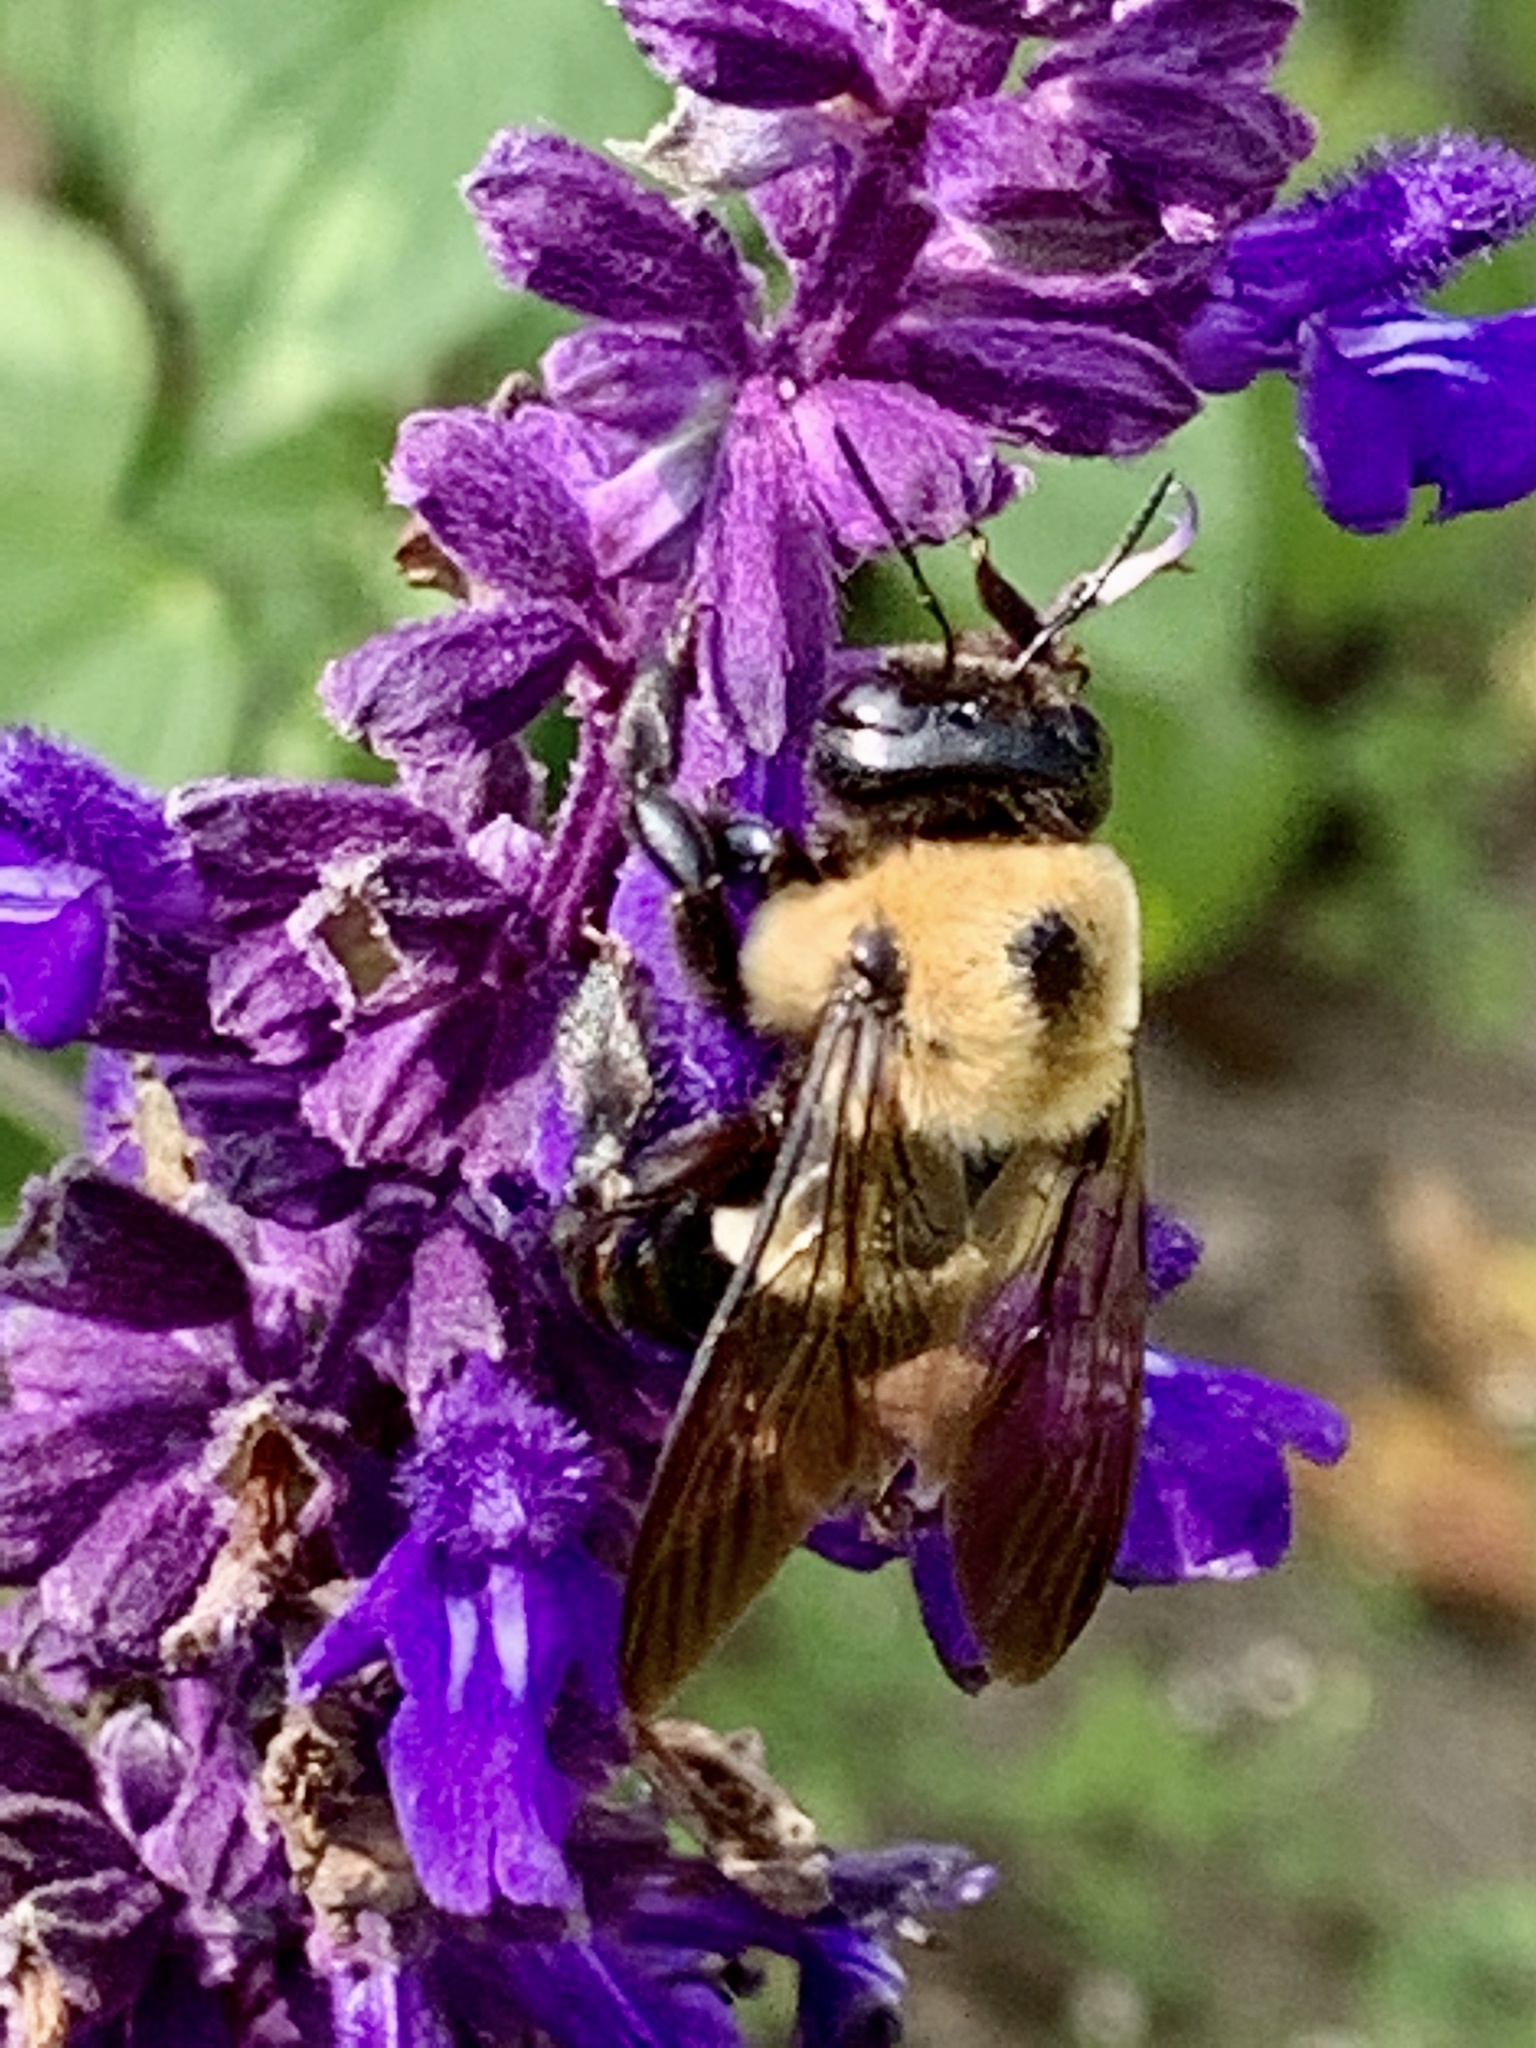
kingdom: Animalia
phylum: Arthropoda
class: Insecta
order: Hymenoptera
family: Apidae
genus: Xylocopa
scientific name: Xylocopa virginica
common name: Carpenter bee
